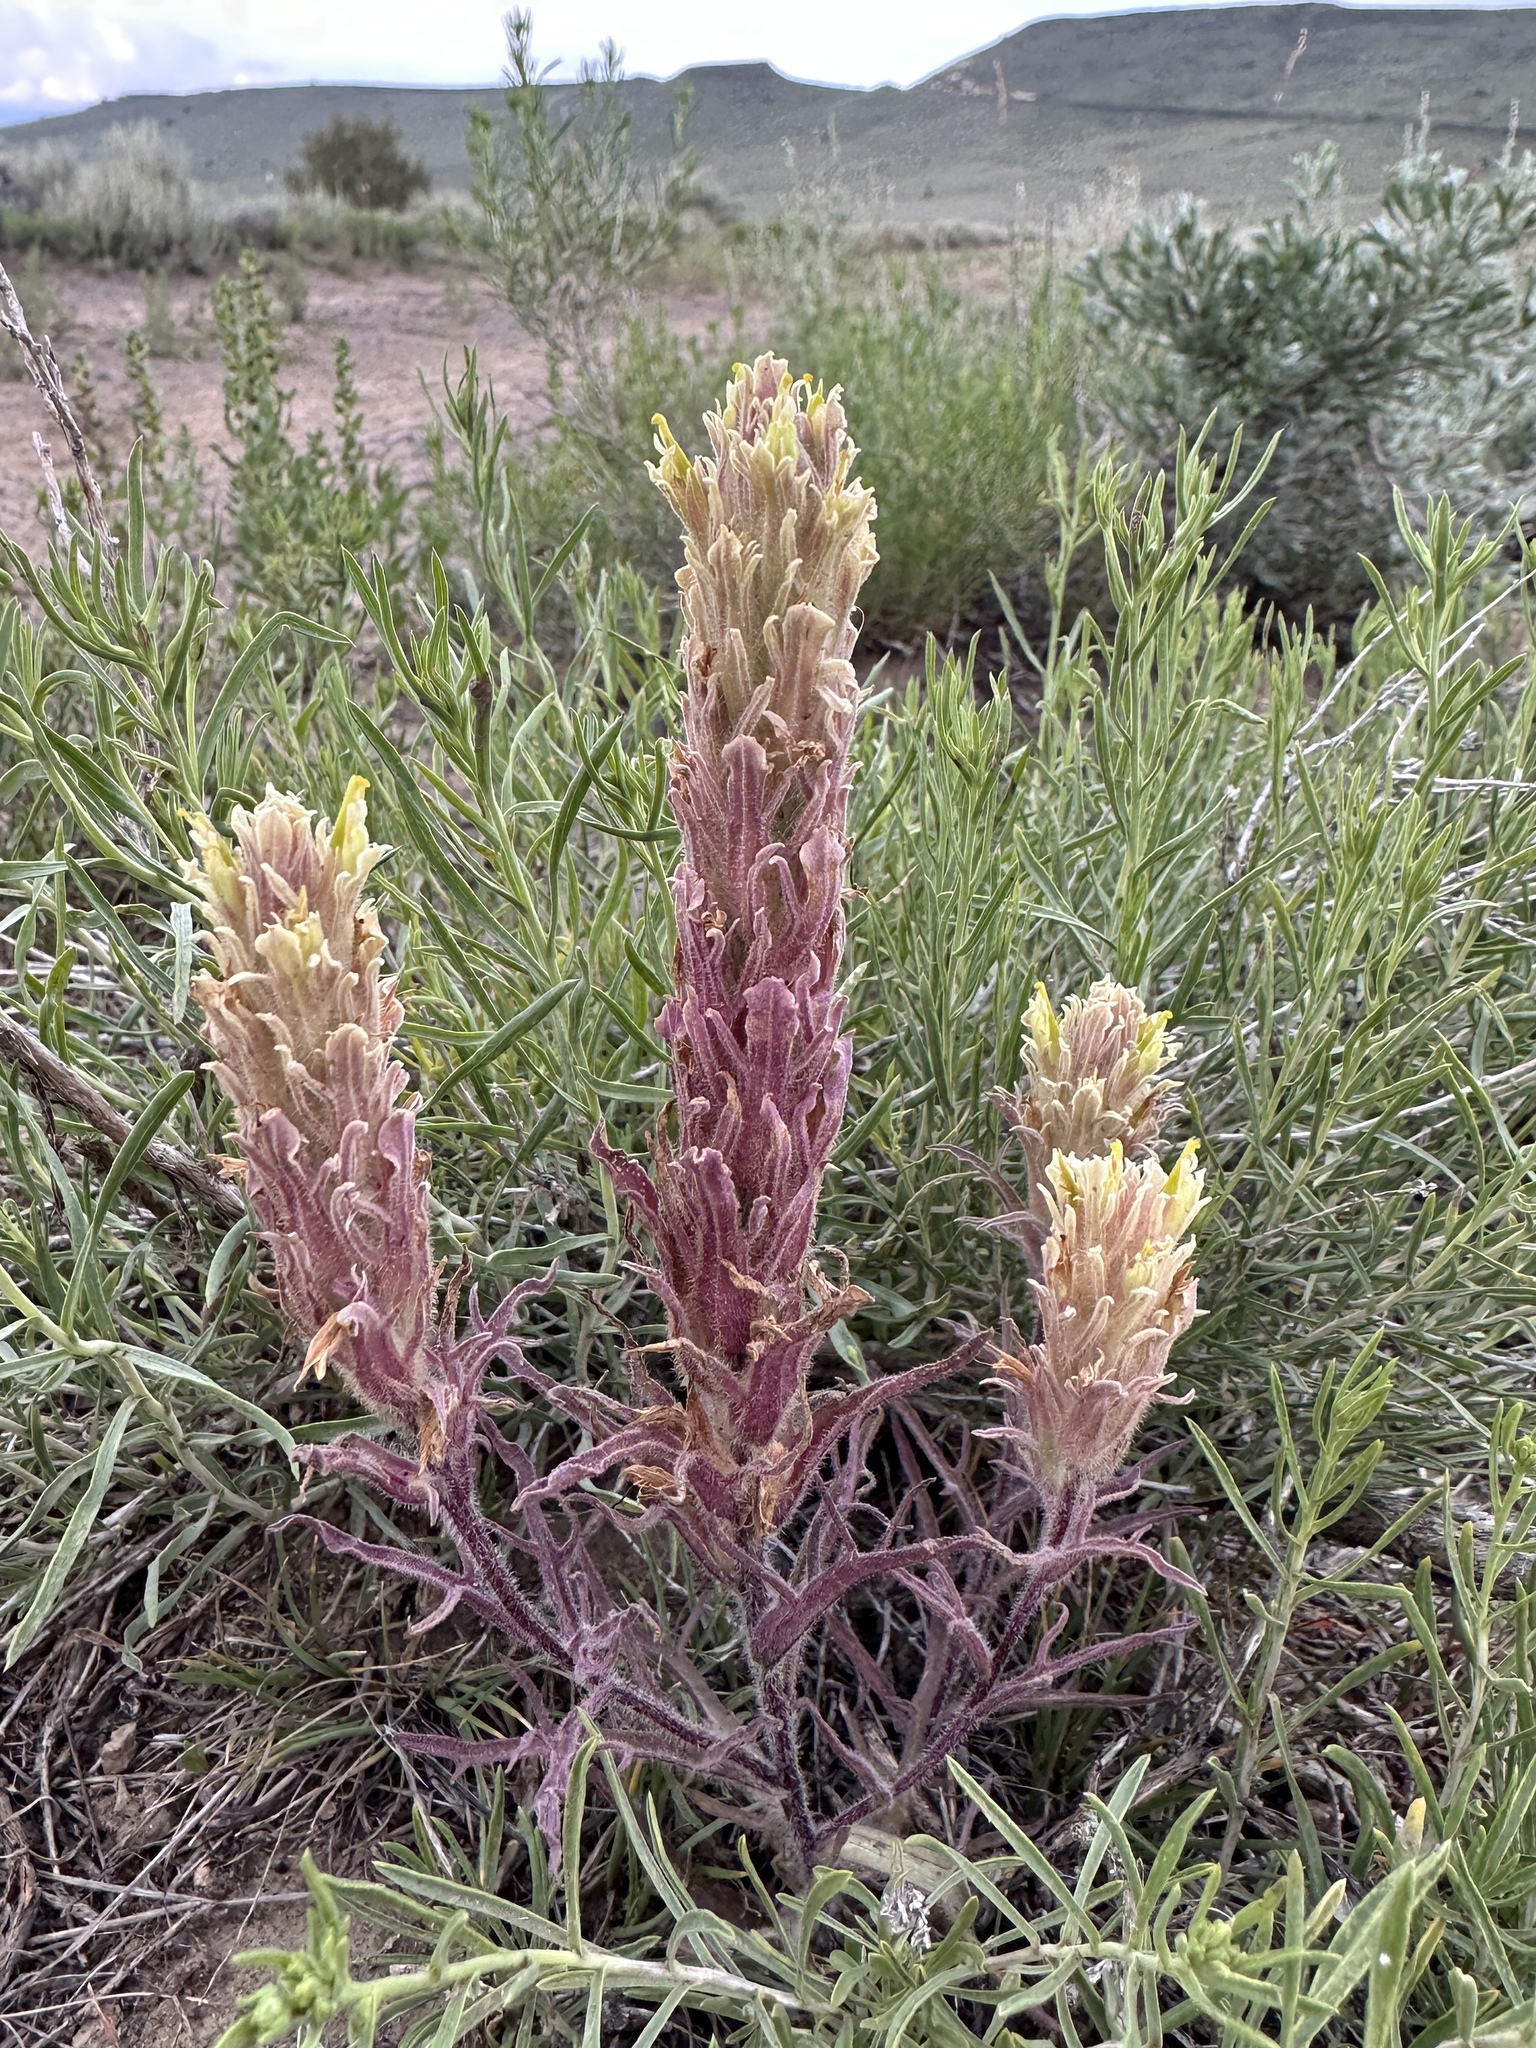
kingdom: Plantae
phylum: Tracheophyta
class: Magnoliopsida
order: Lamiales
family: Orobanchaceae
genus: Castilleja
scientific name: Castilleja pilosa
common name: Hairy paintbrush
